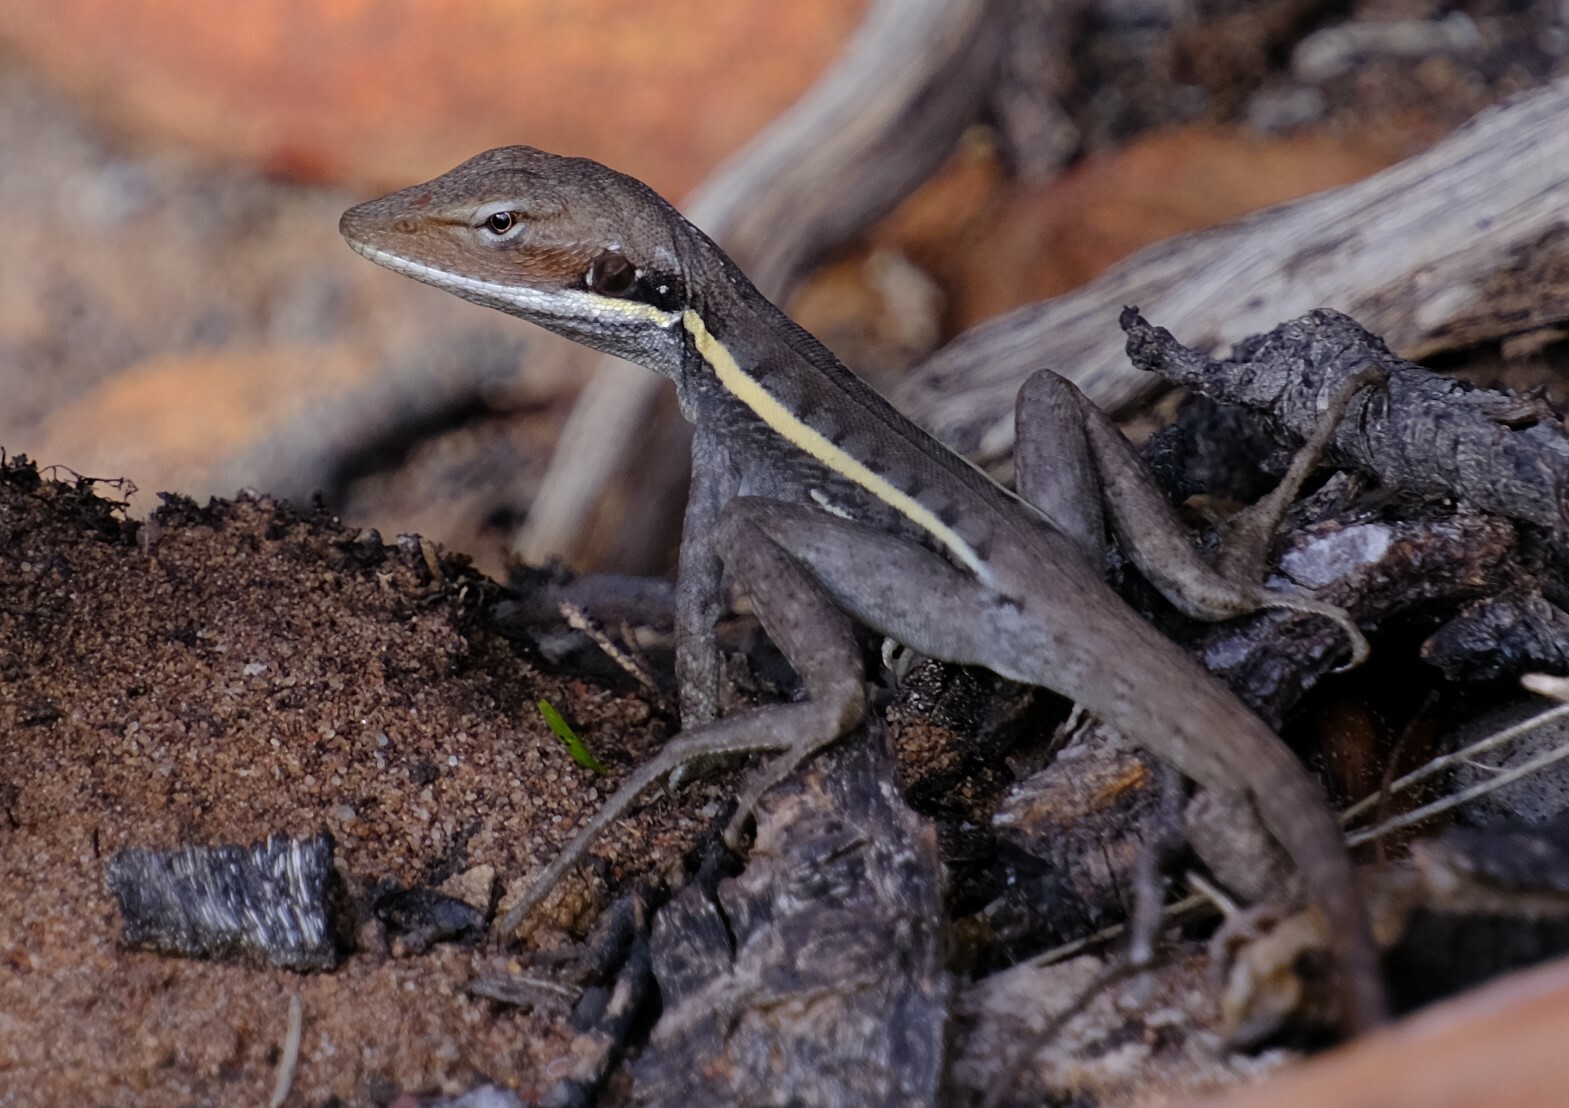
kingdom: Animalia
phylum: Chordata
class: Squamata
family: Agamidae
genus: Gowidon
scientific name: Gowidon longirostris
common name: Long-nosed water dragon
